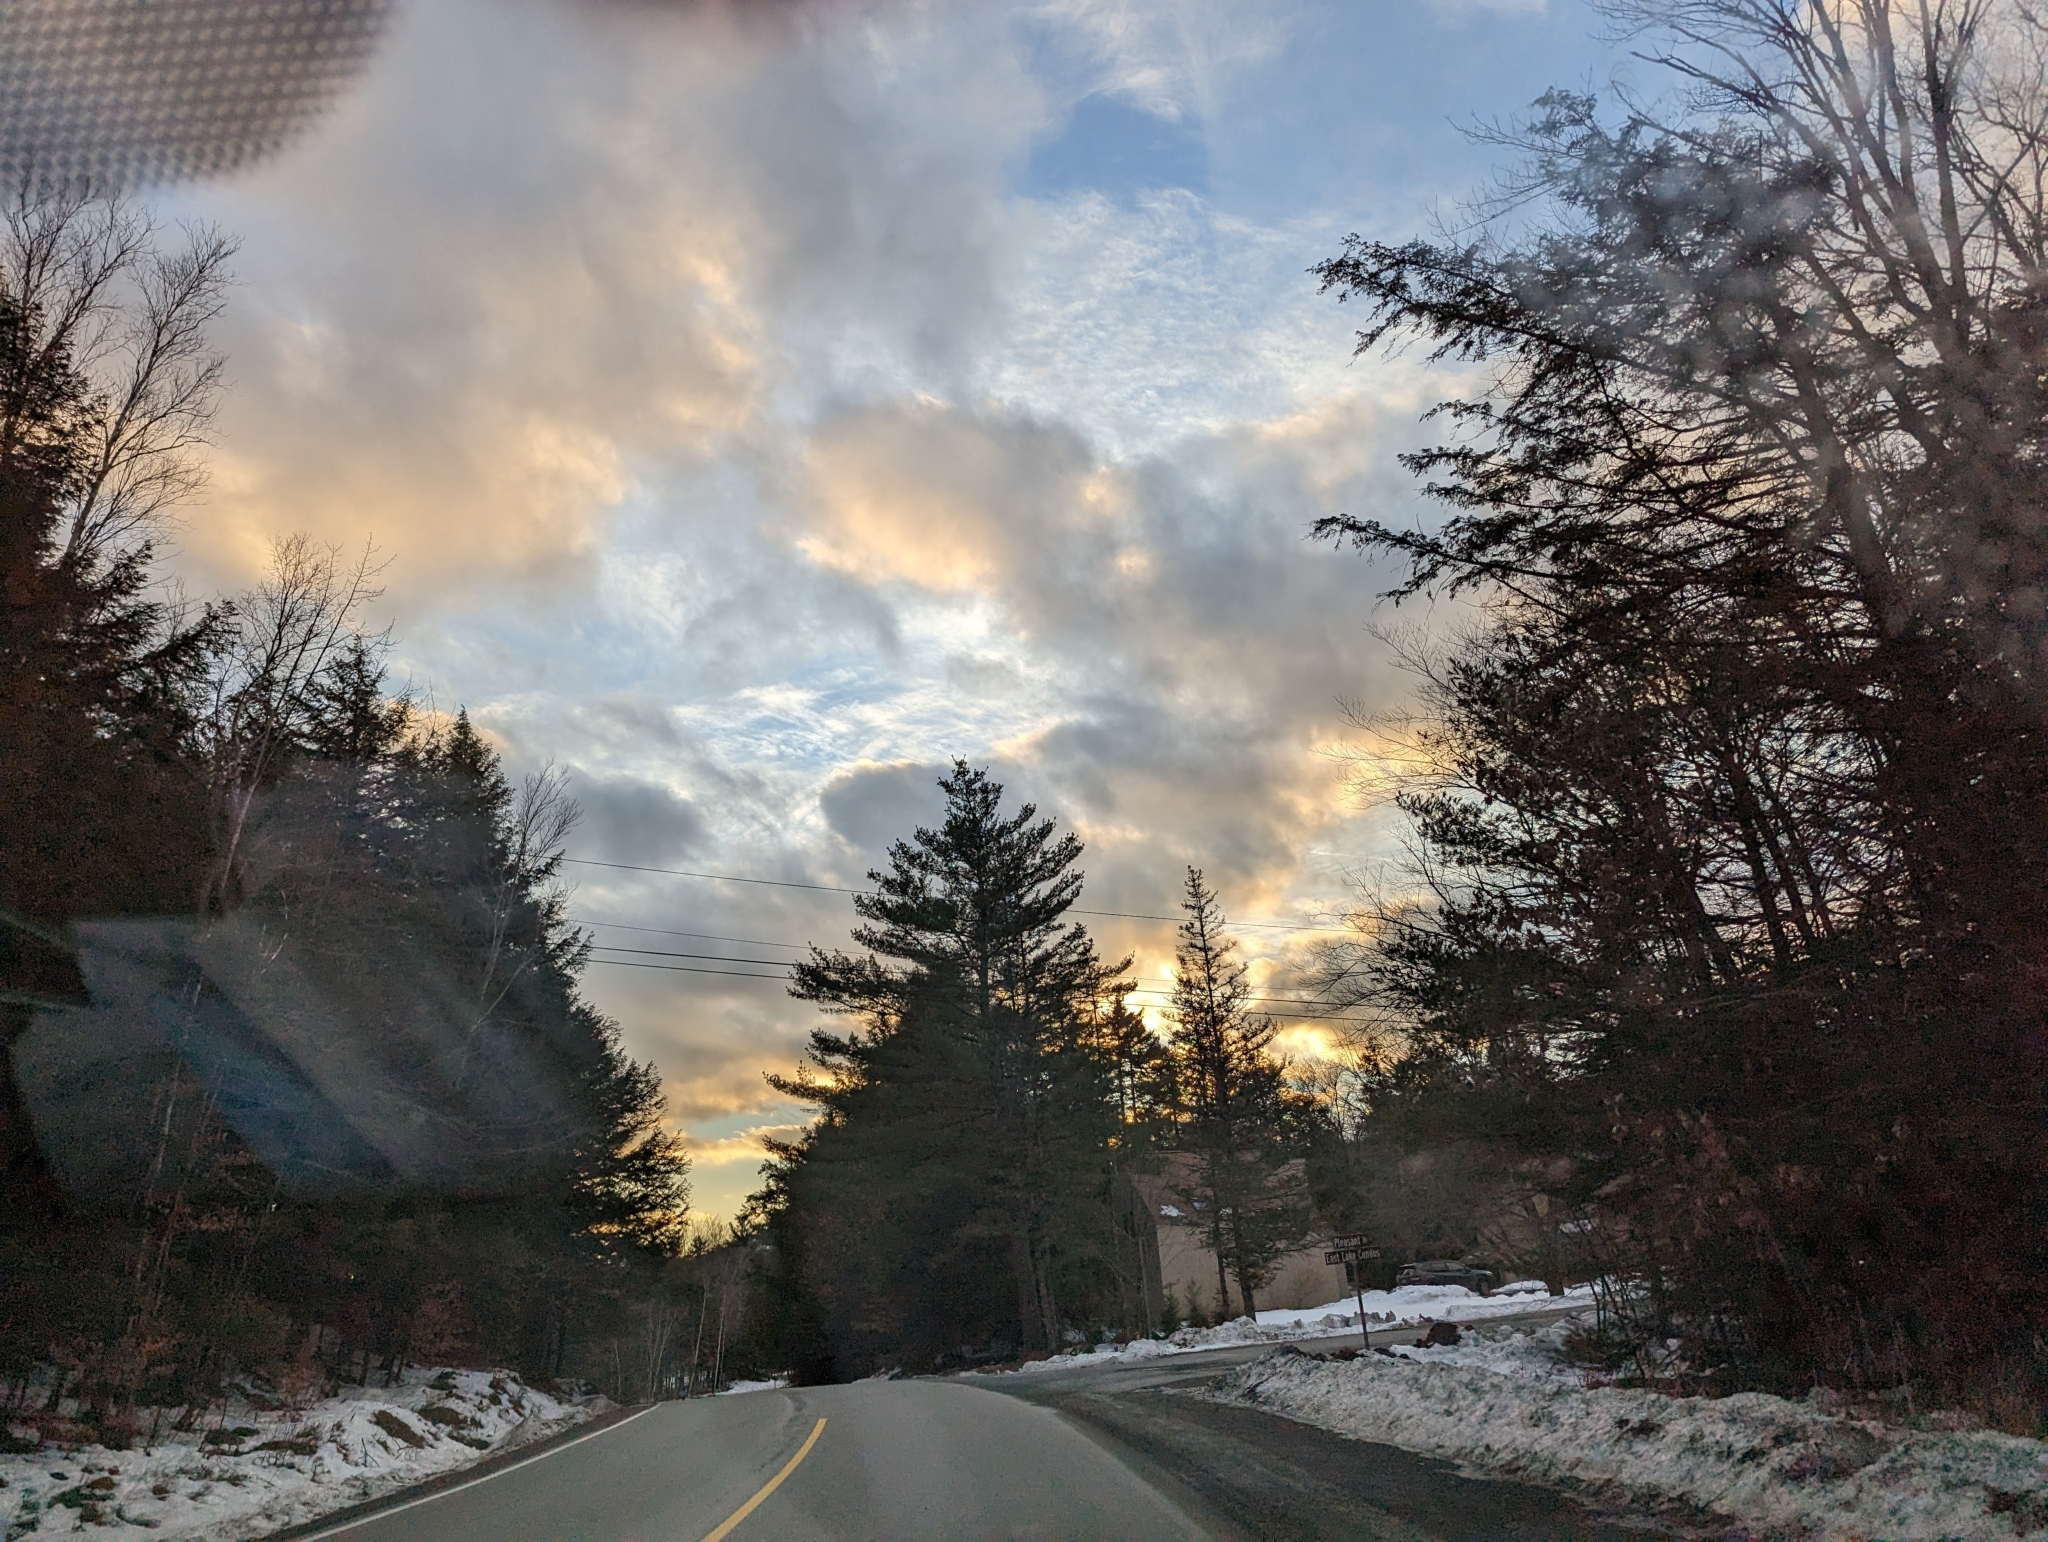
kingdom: Plantae
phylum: Tracheophyta
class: Pinopsida
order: Pinales
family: Pinaceae
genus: Pinus
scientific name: Pinus strobus
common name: Weymouth pine
